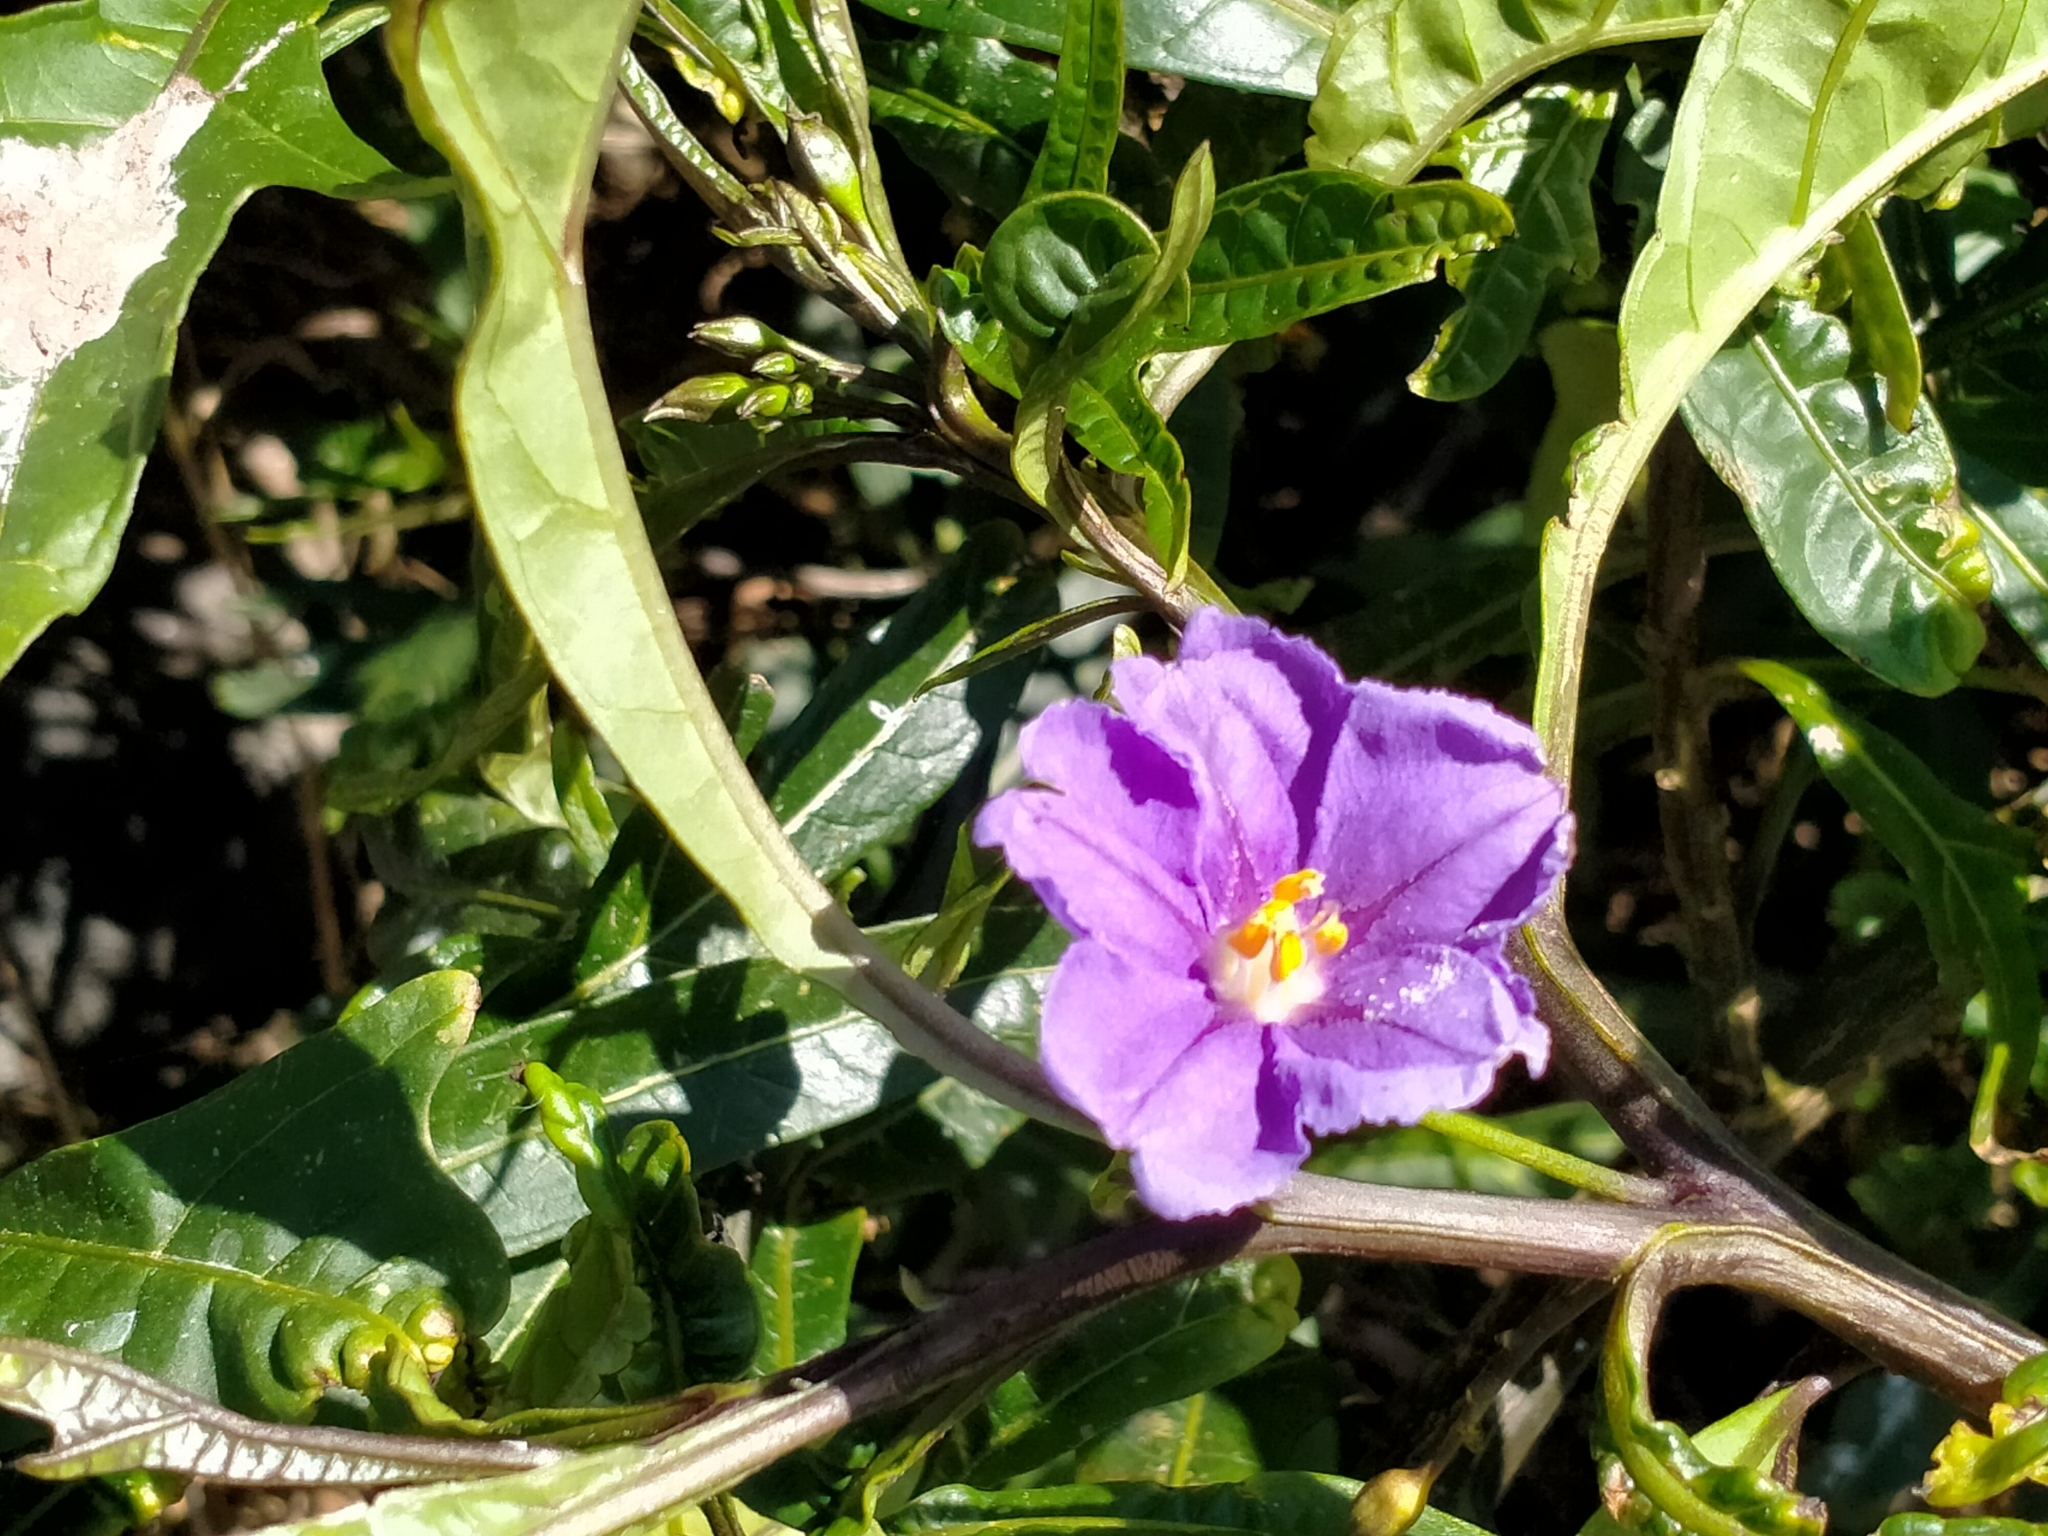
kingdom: Plantae
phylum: Tracheophyta
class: Magnoliopsida
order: Solanales
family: Solanaceae
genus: Solanum
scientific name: Solanum laciniatum
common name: Kangaroo-apple
